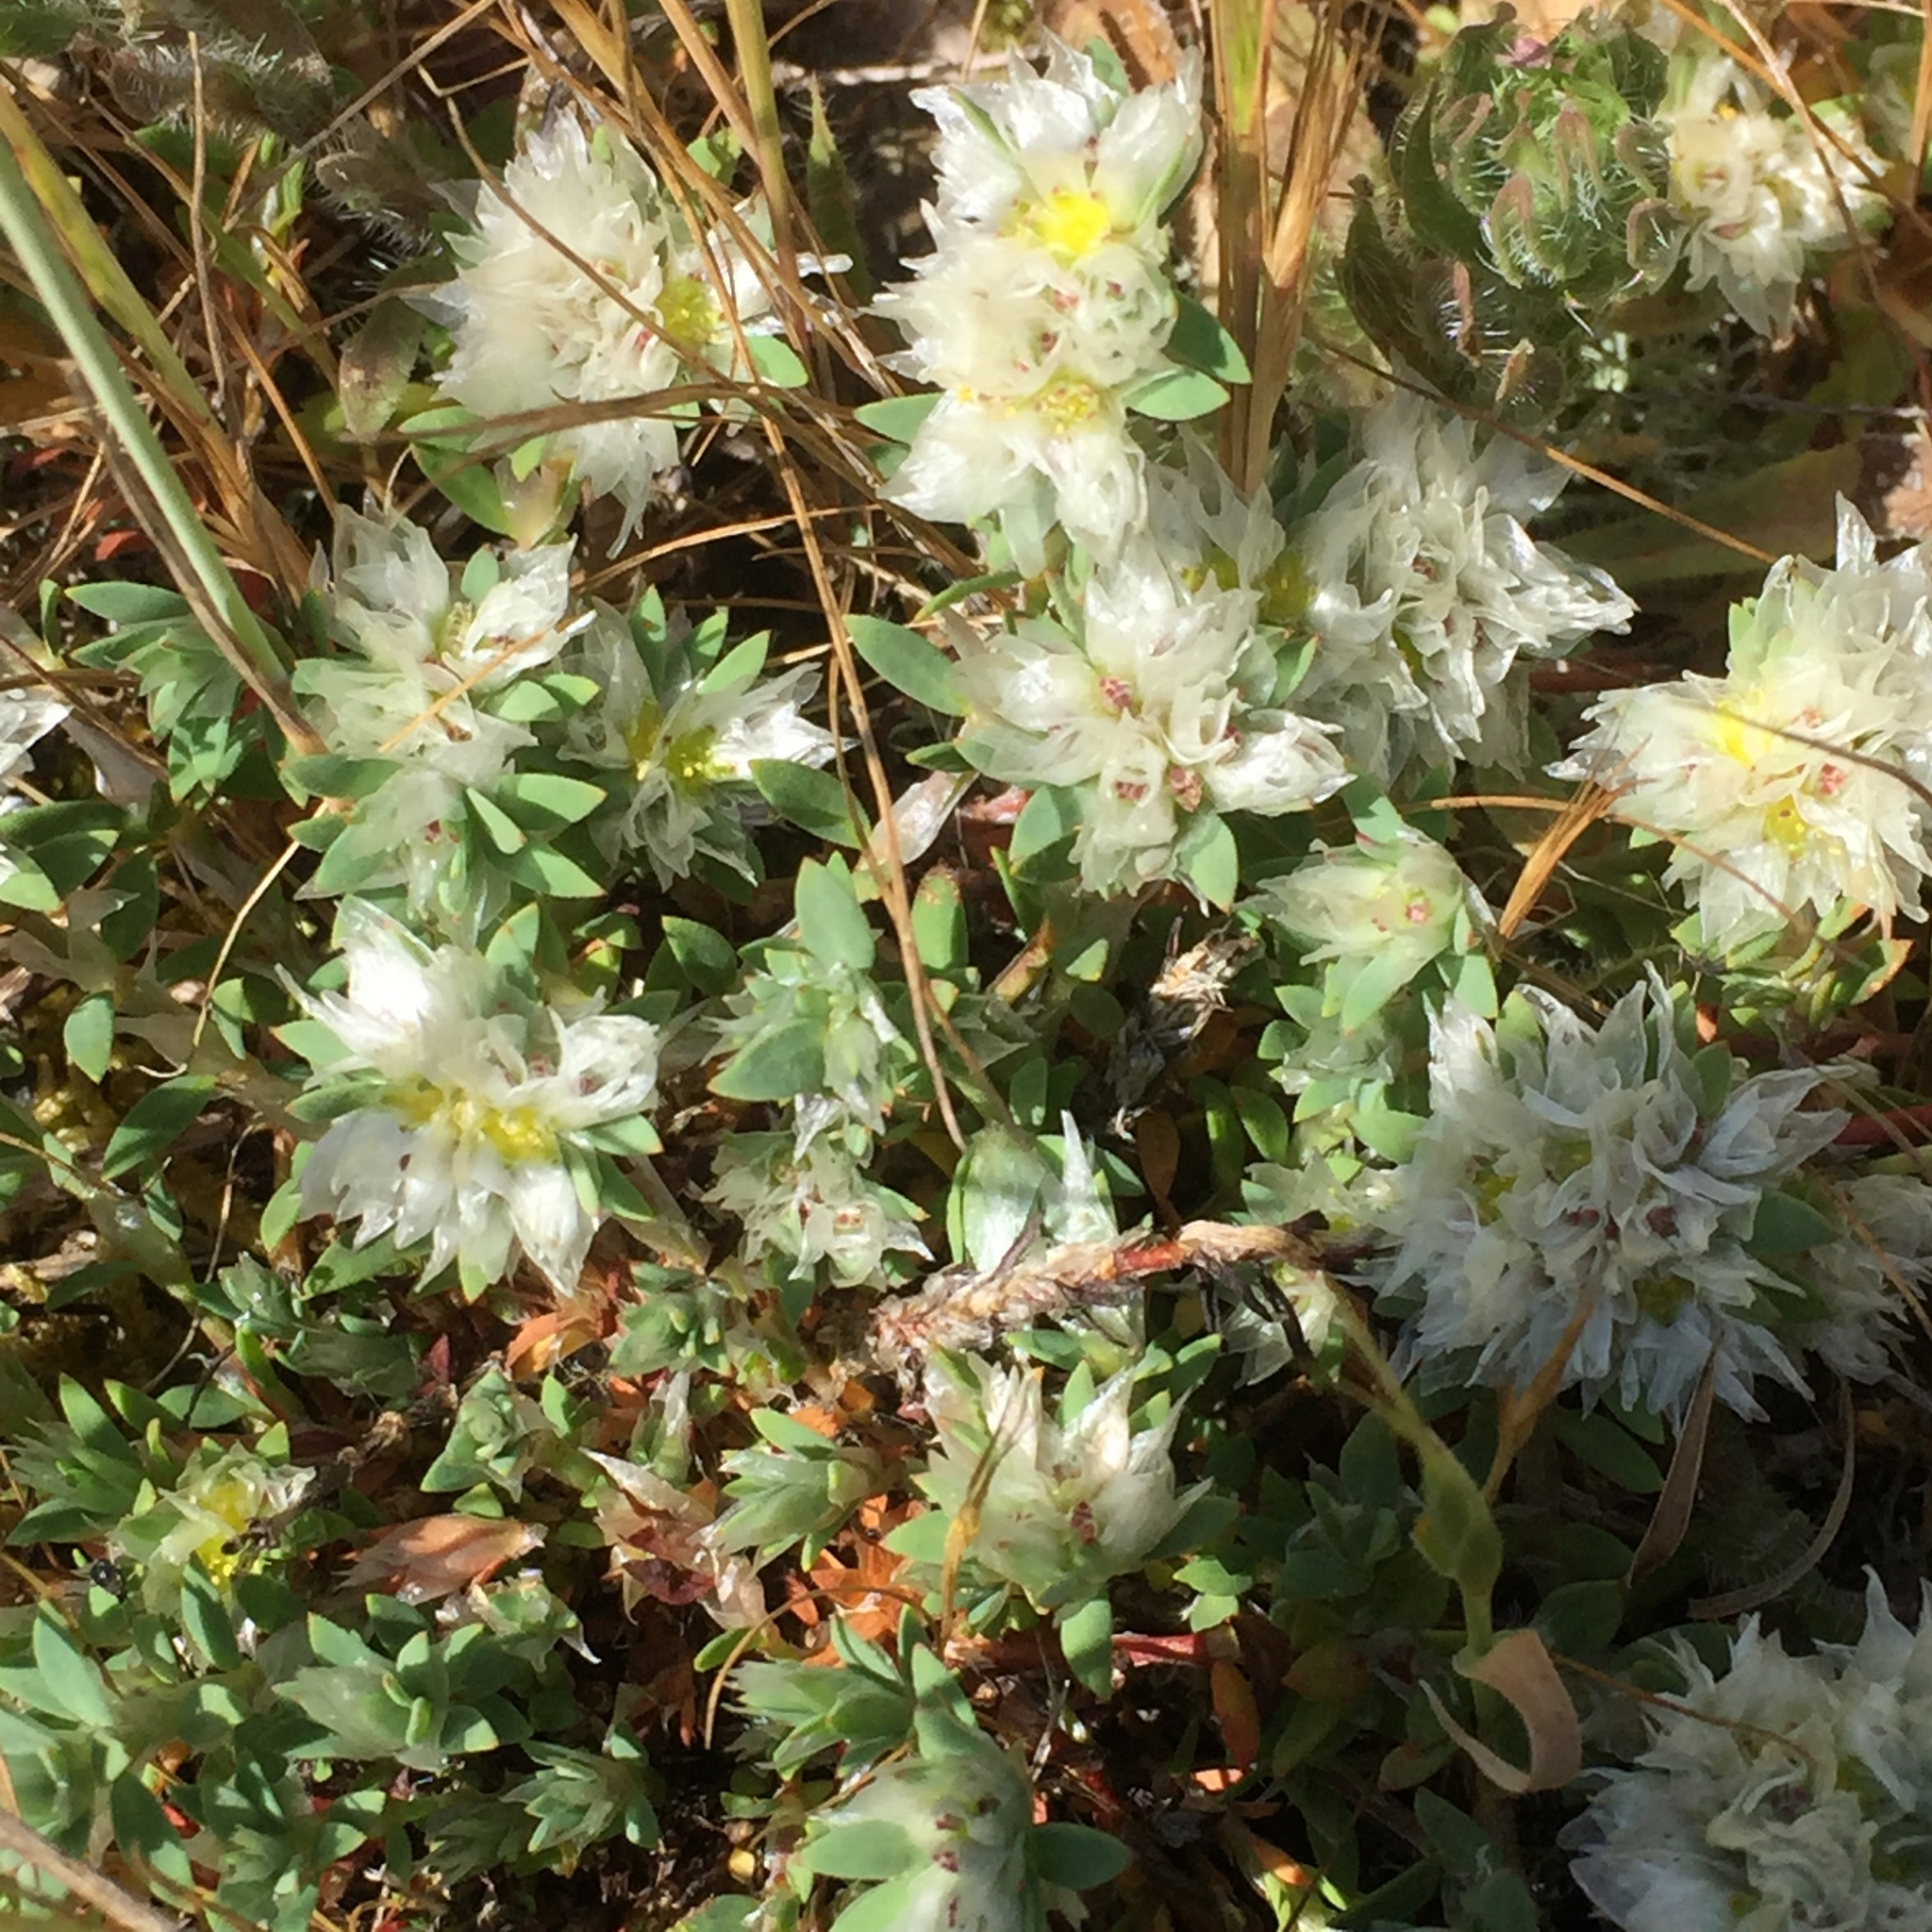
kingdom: Plantae
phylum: Tracheophyta
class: Magnoliopsida
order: Caryophyllales
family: Caryophyllaceae
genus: Paronychia
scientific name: Paronychia argentea
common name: Silver nailroot
